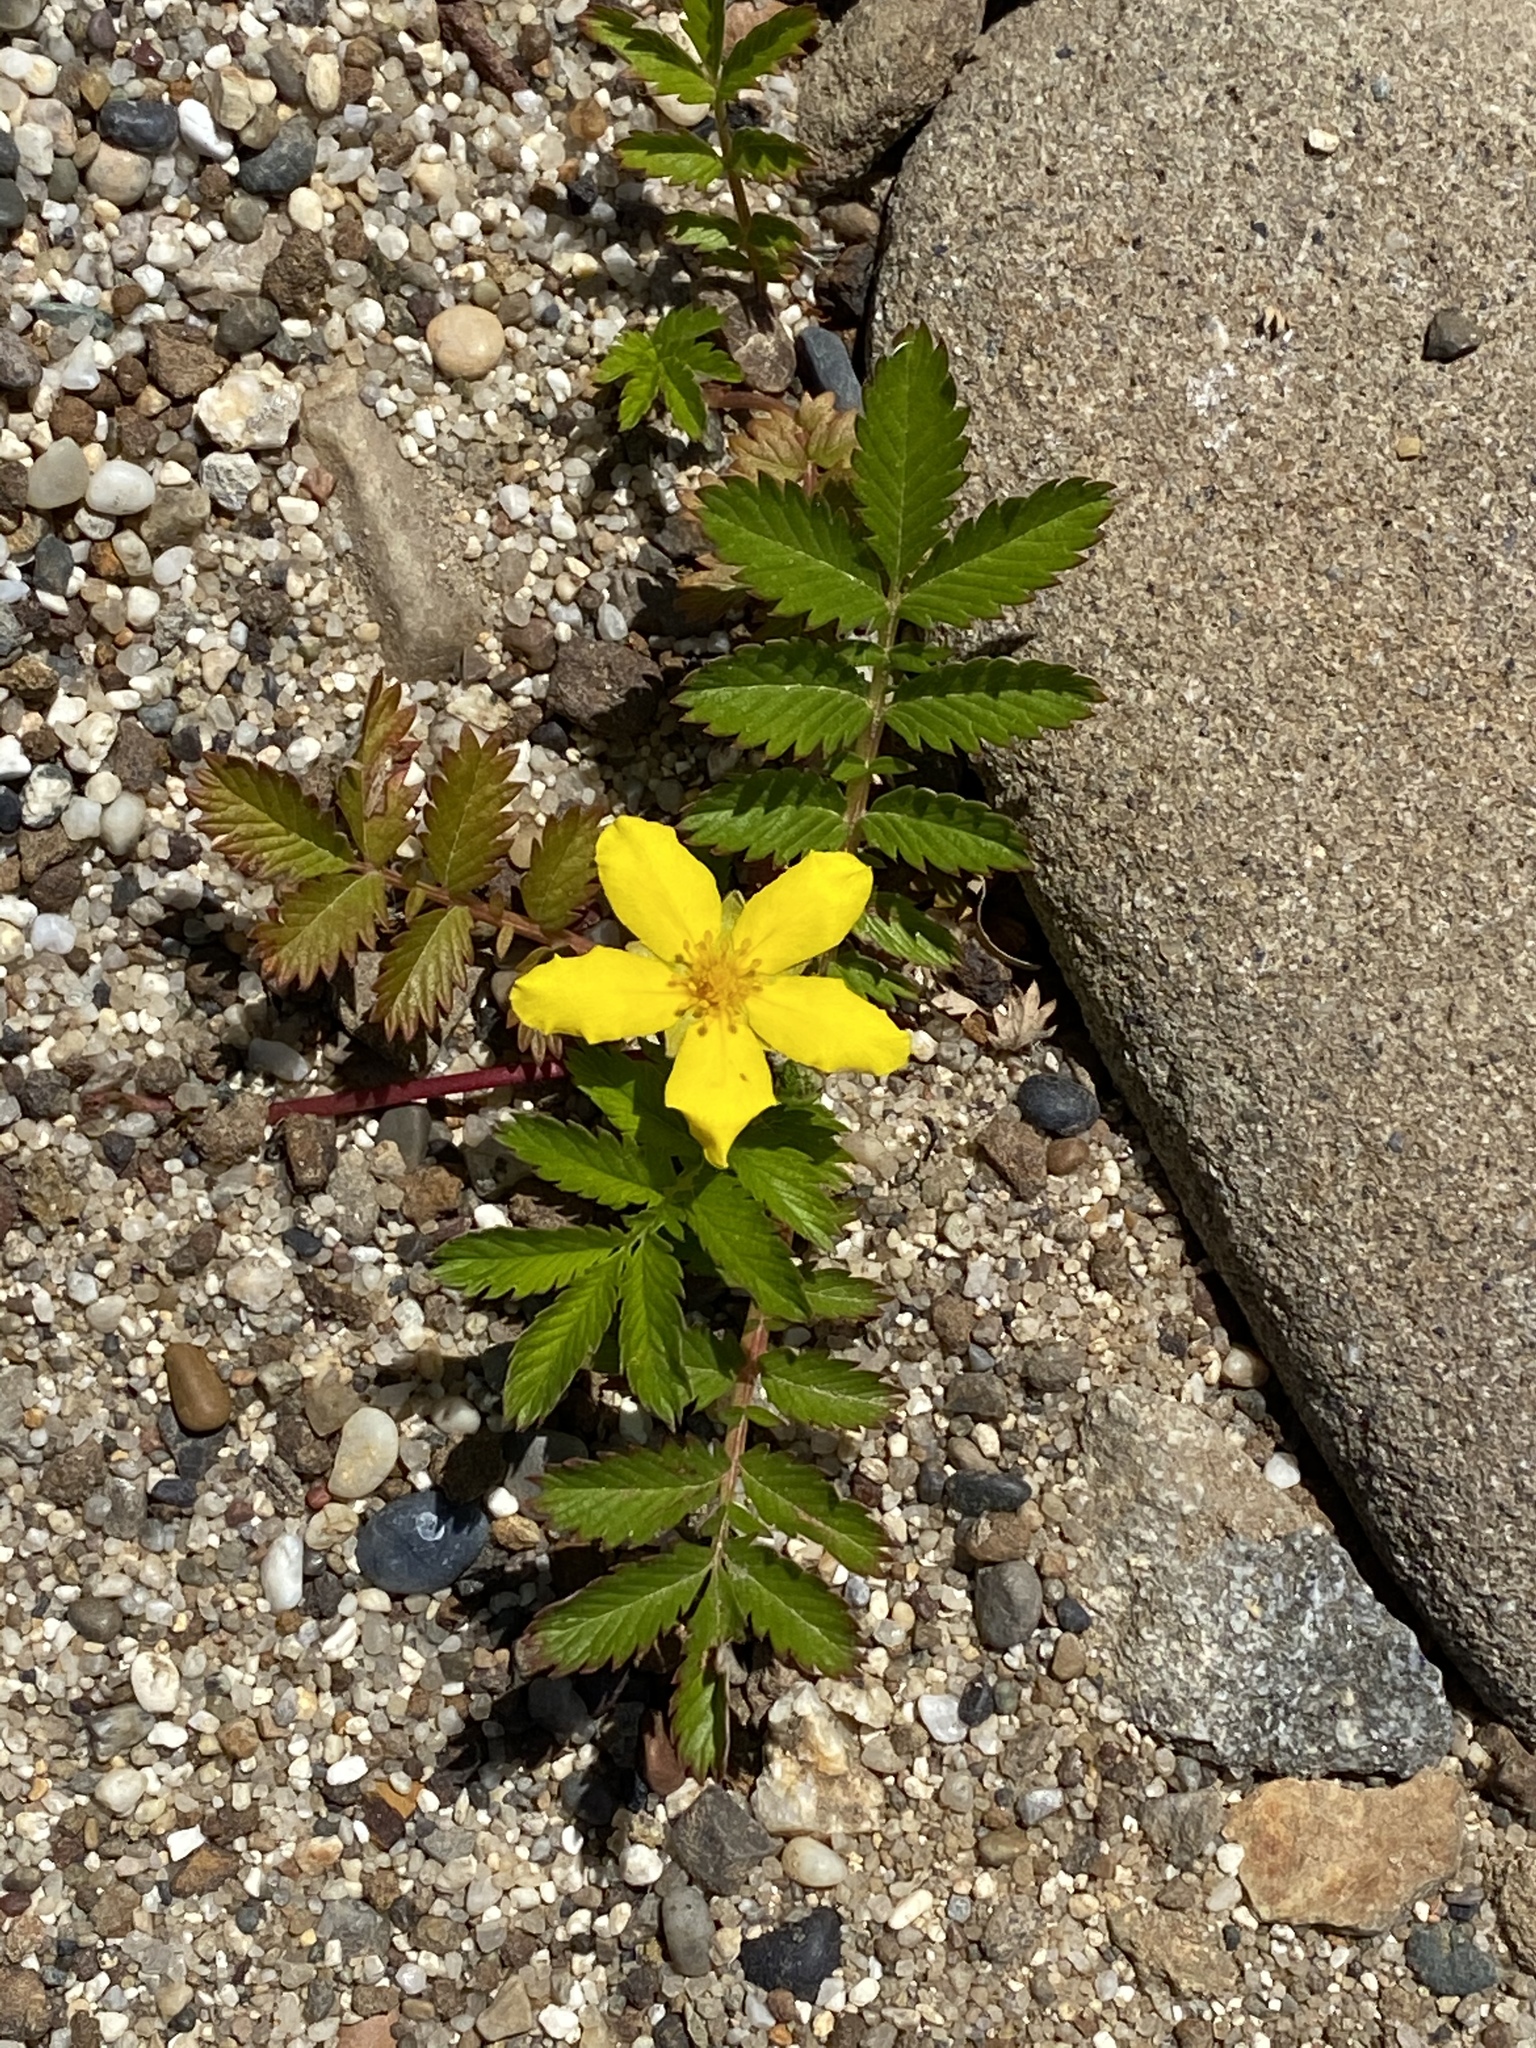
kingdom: Plantae
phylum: Tracheophyta
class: Magnoliopsida
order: Rosales
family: Rosaceae
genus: Argentina
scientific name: Argentina anserina
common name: Common silverweed
